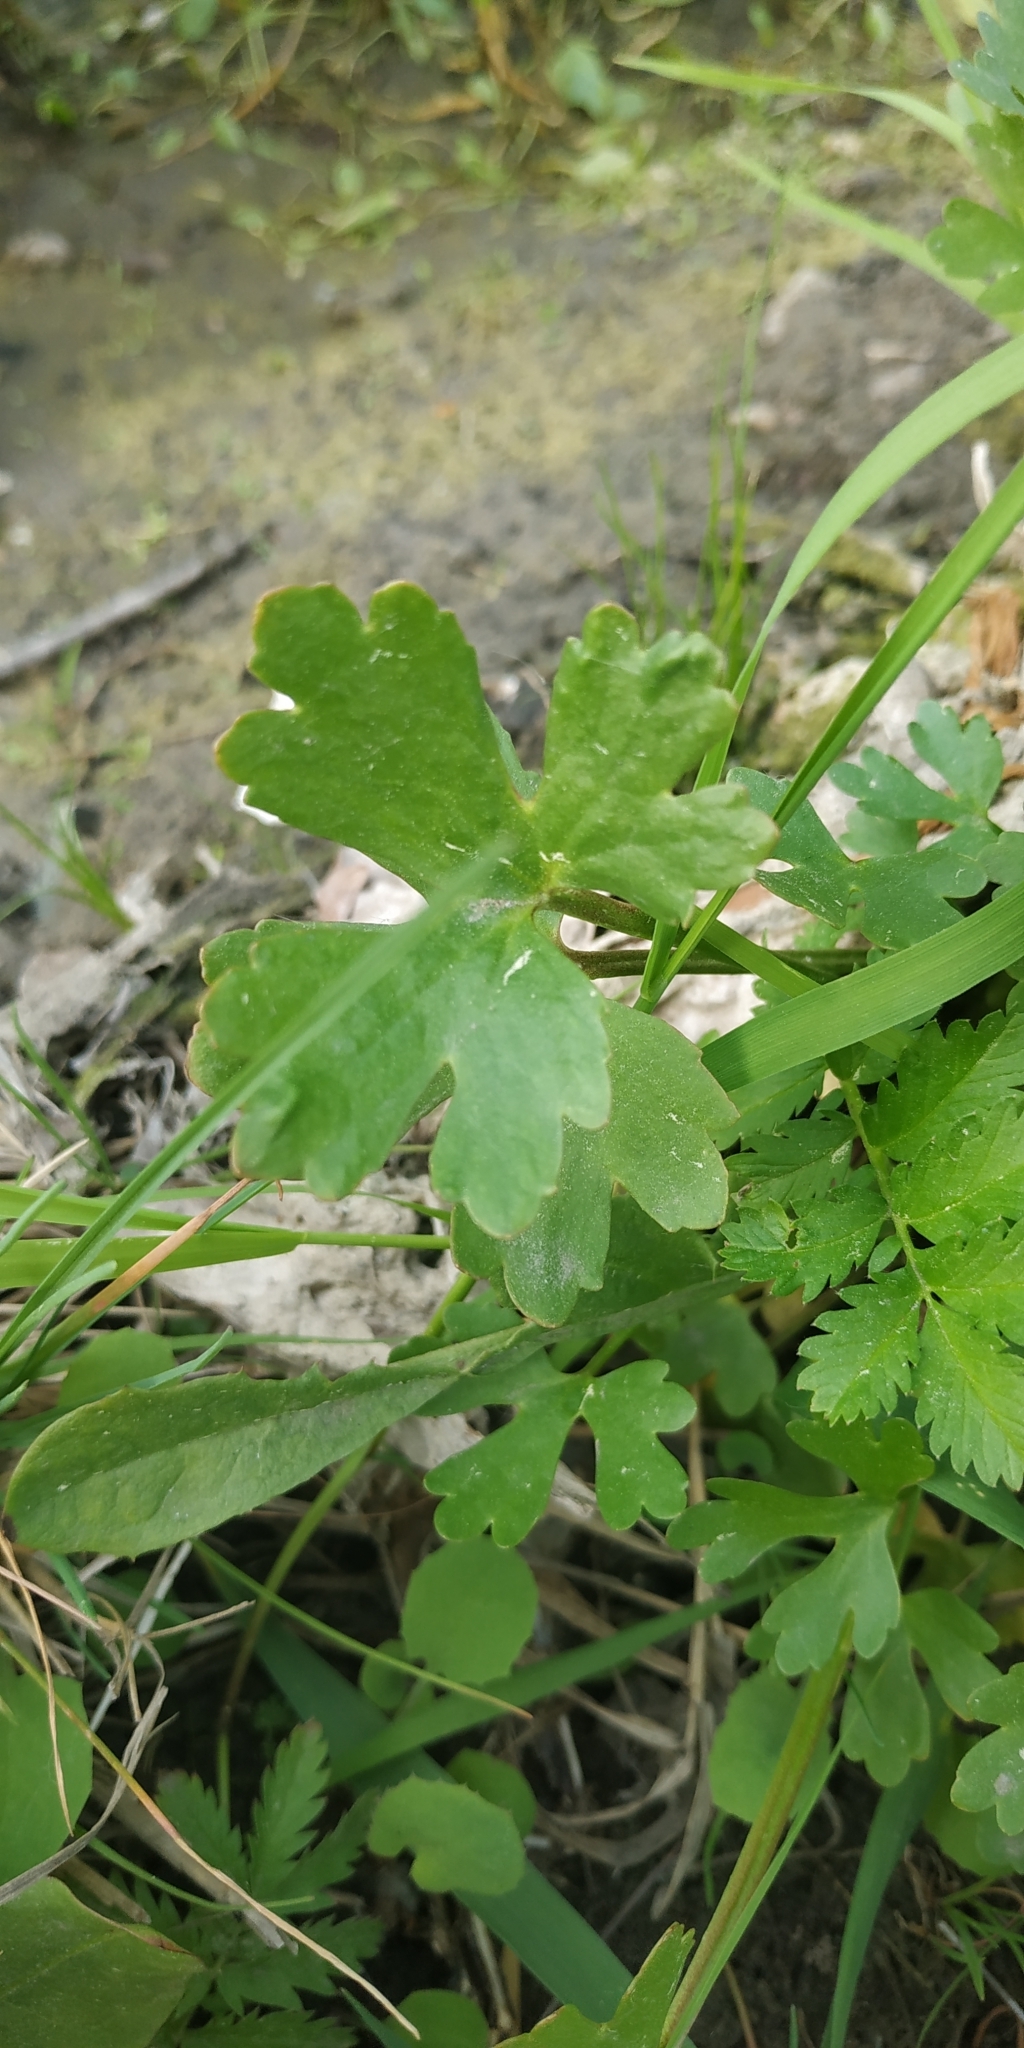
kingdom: Plantae
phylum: Tracheophyta
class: Magnoliopsida
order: Ranunculales
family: Ranunculaceae
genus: Ranunculus
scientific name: Ranunculus sceleratus
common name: Celery-leaved buttercup
